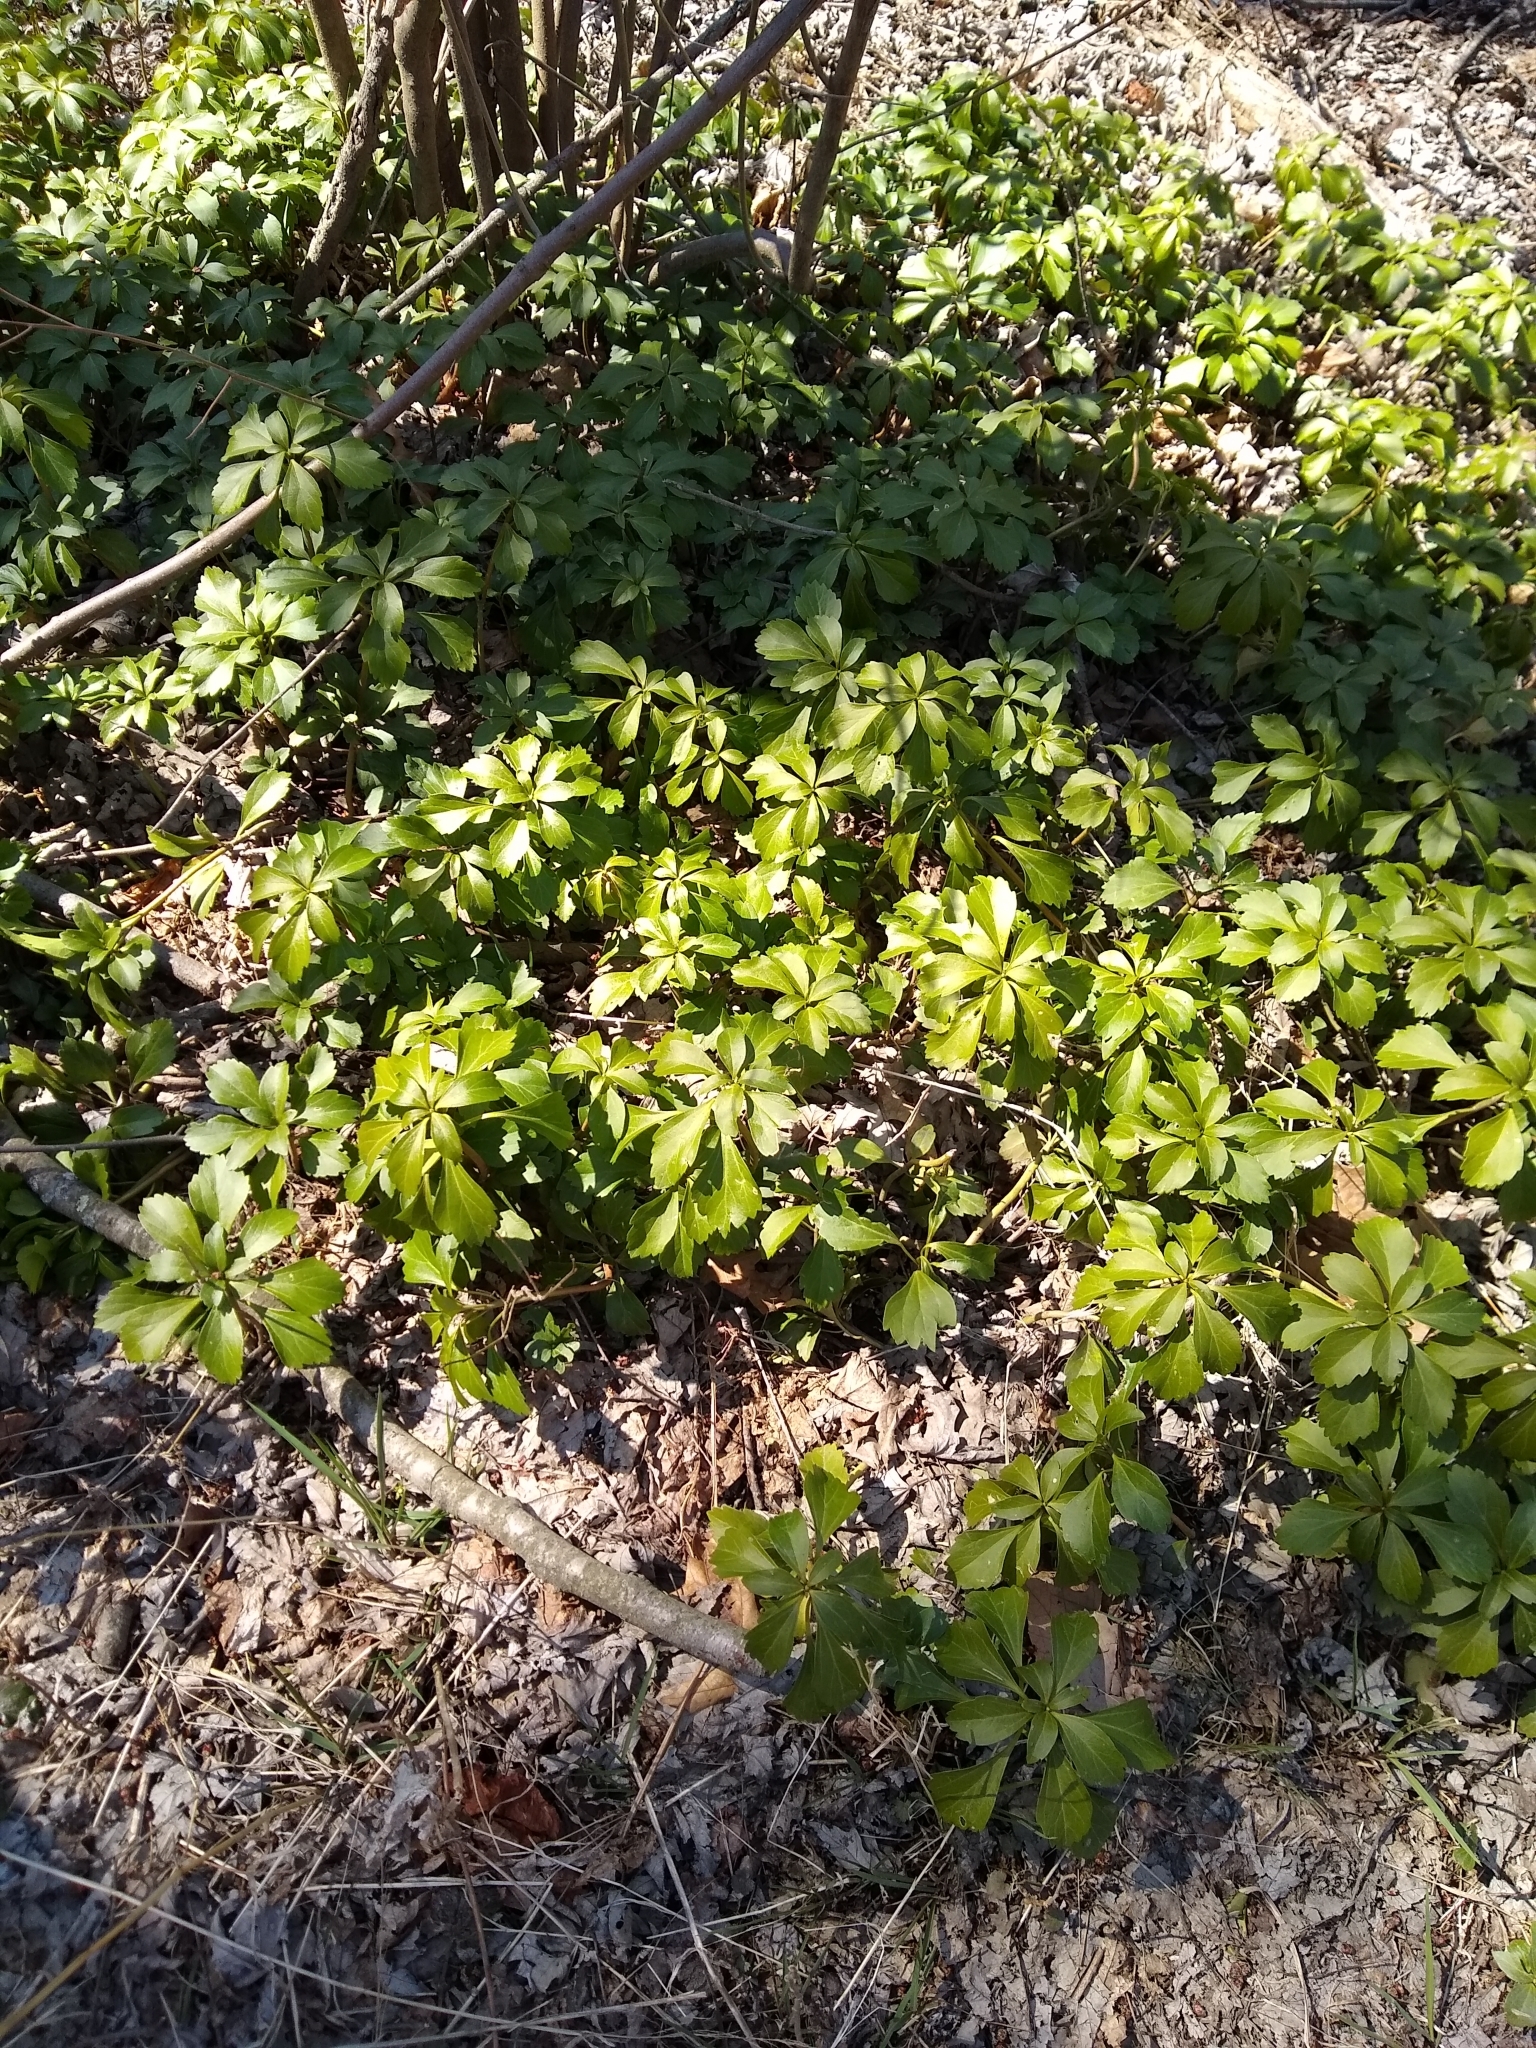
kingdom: Plantae
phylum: Tracheophyta
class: Magnoliopsida
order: Buxales
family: Buxaceae
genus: Pachysandra
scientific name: Pachysandra terminalis
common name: Japanese pachysandra
